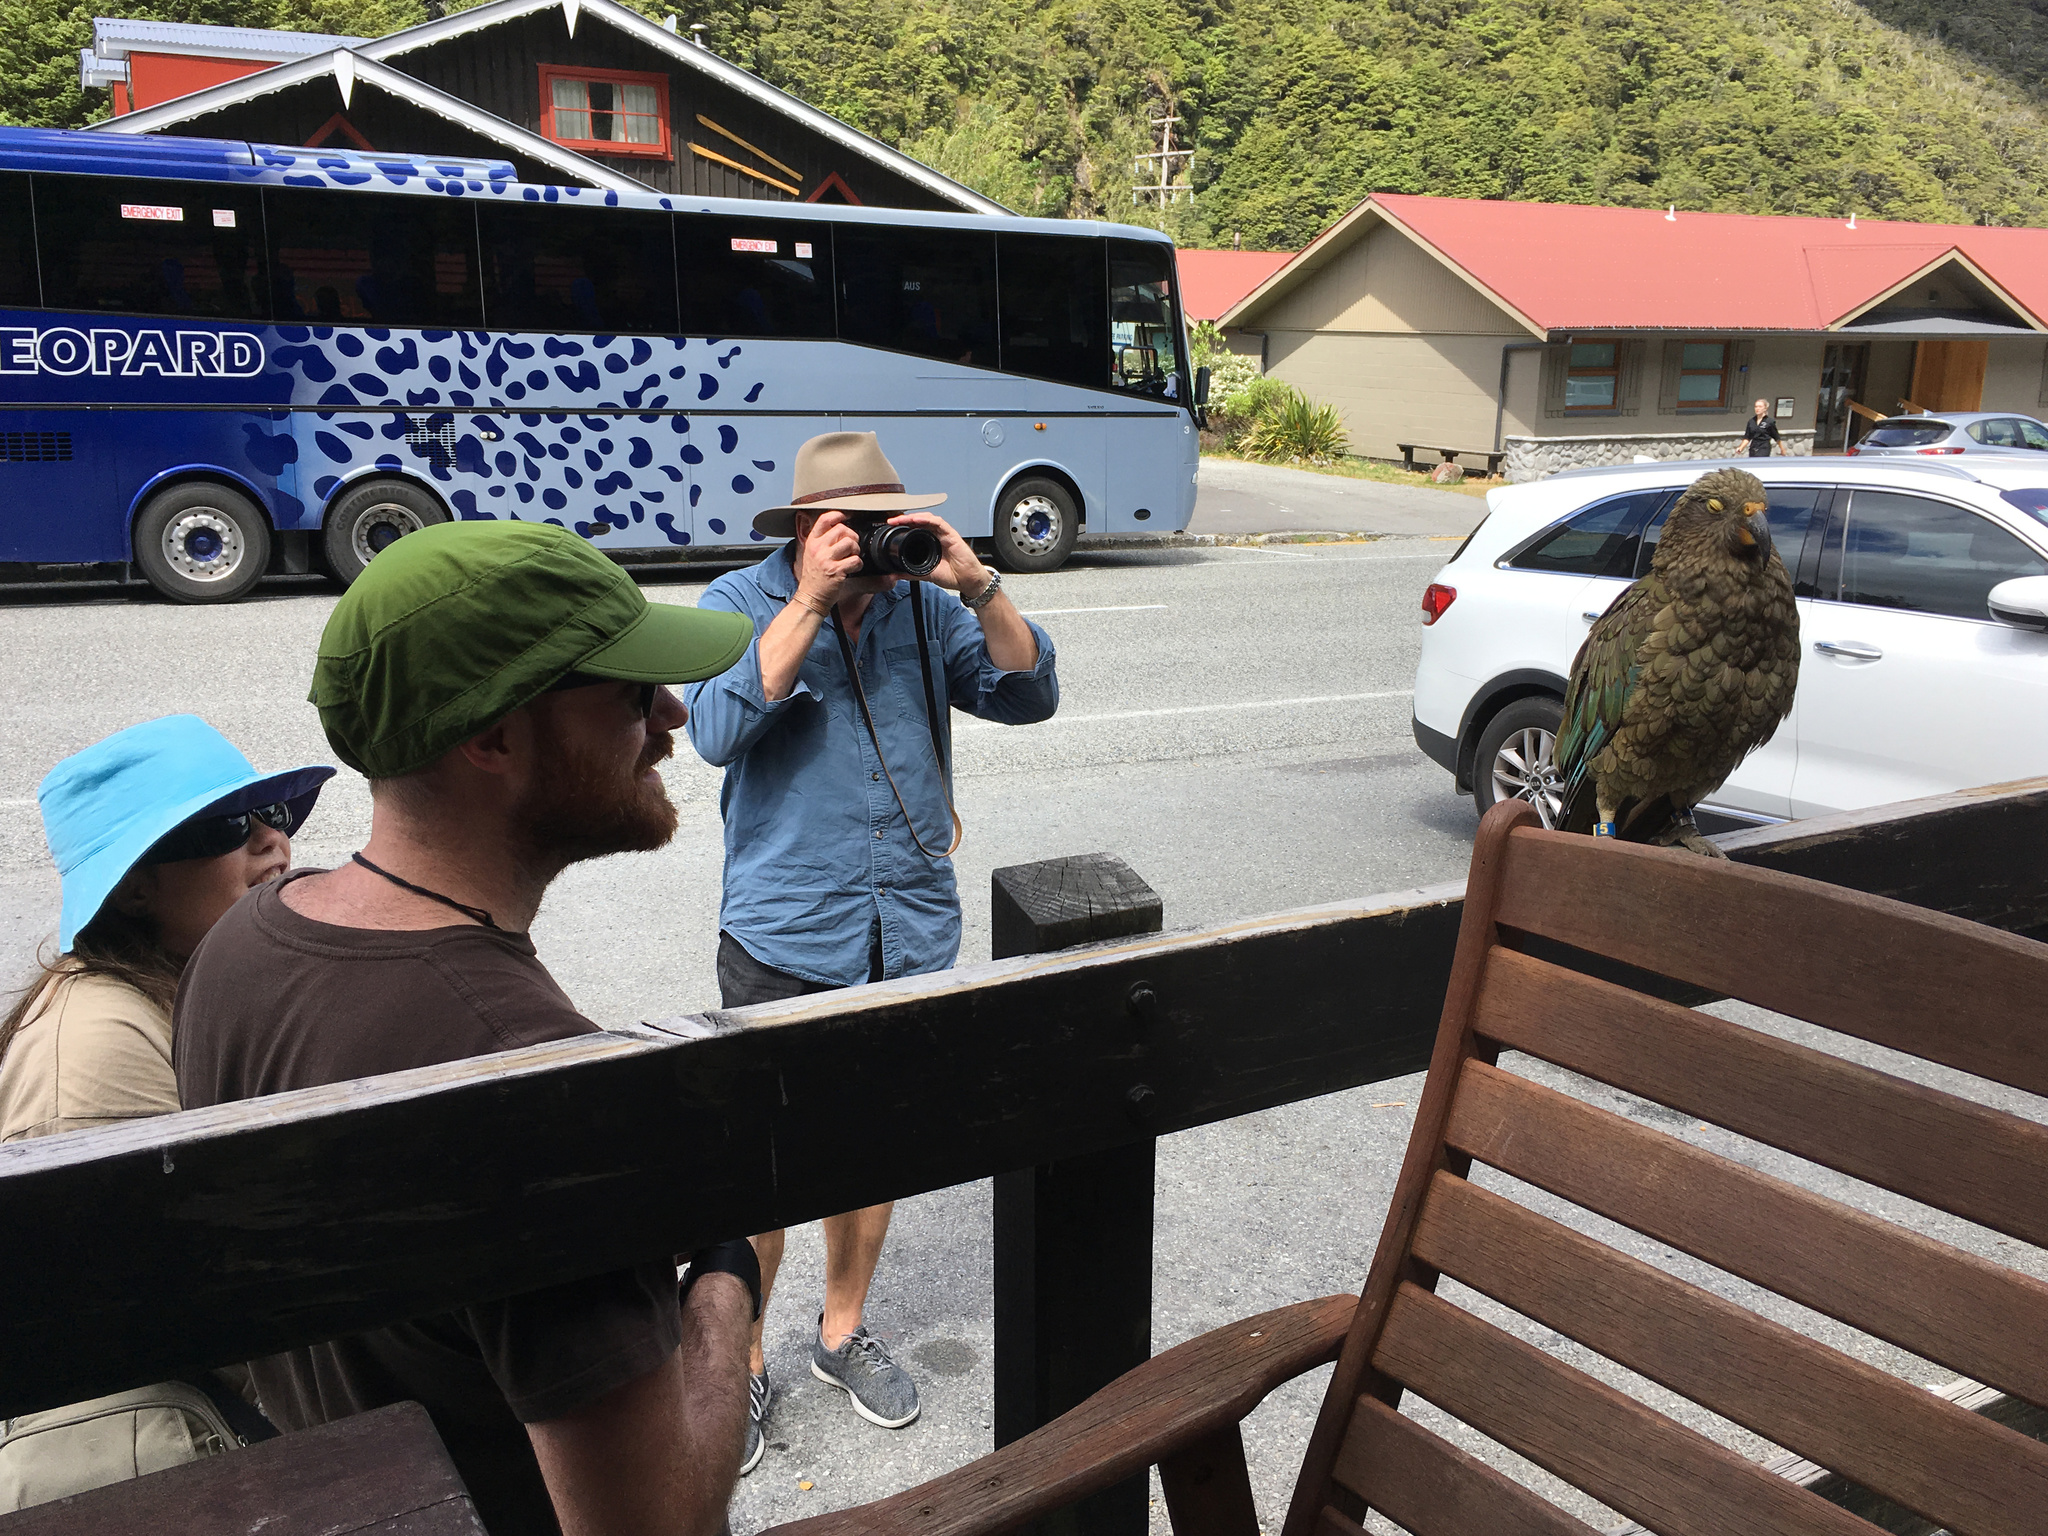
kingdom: Animalia
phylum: Chordata
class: Aves
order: Psittaciformes
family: Psittacidae
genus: Nestor
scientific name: Nestor notabilis
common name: Kea
